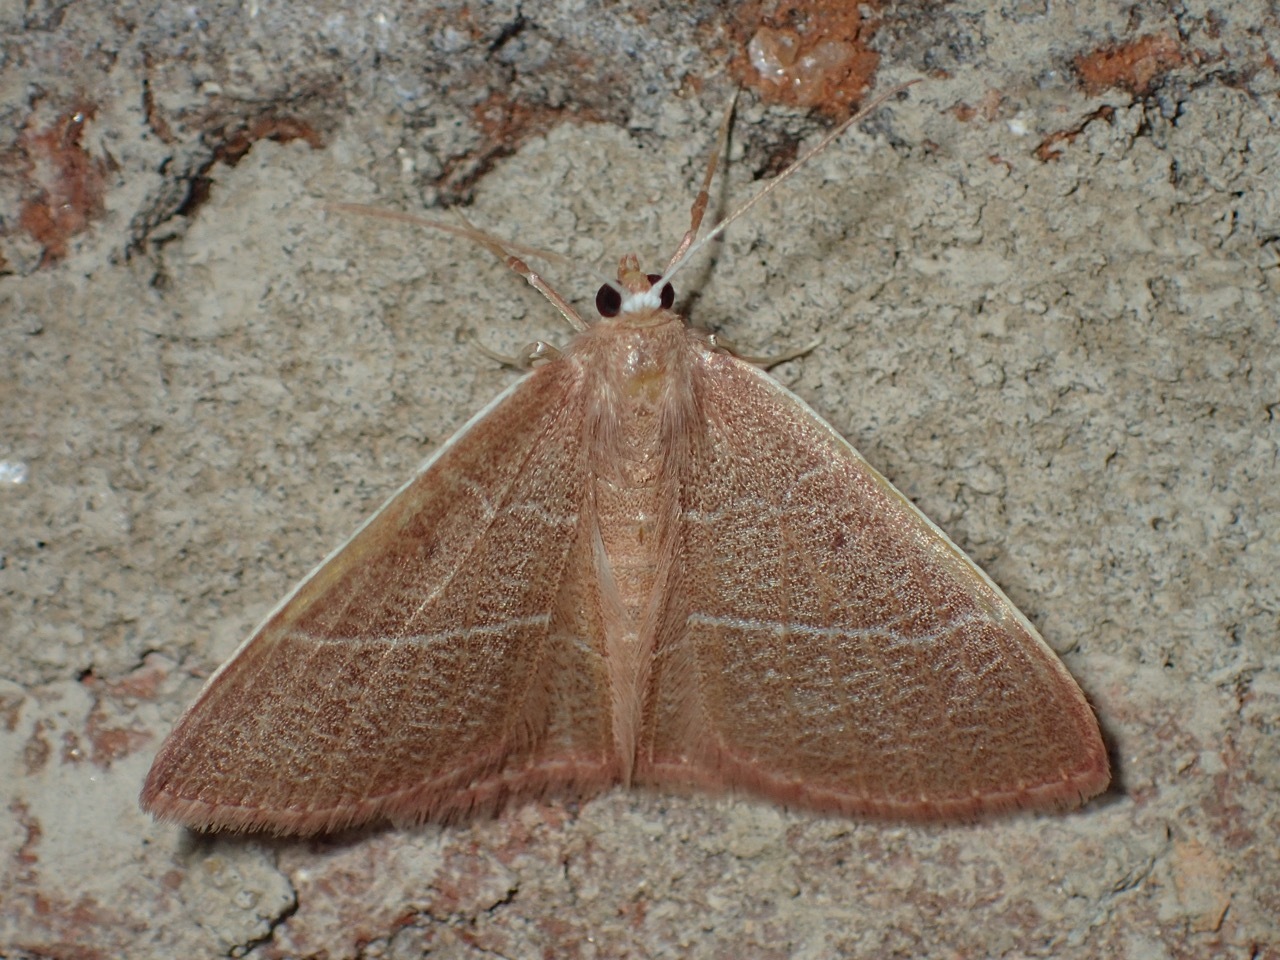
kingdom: Animalia
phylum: Arthropoda
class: Insecta
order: Lepidoptera
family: Geometridae
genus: Nemoria
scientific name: Nemoria bistriaria
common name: Red-fringed emerald
